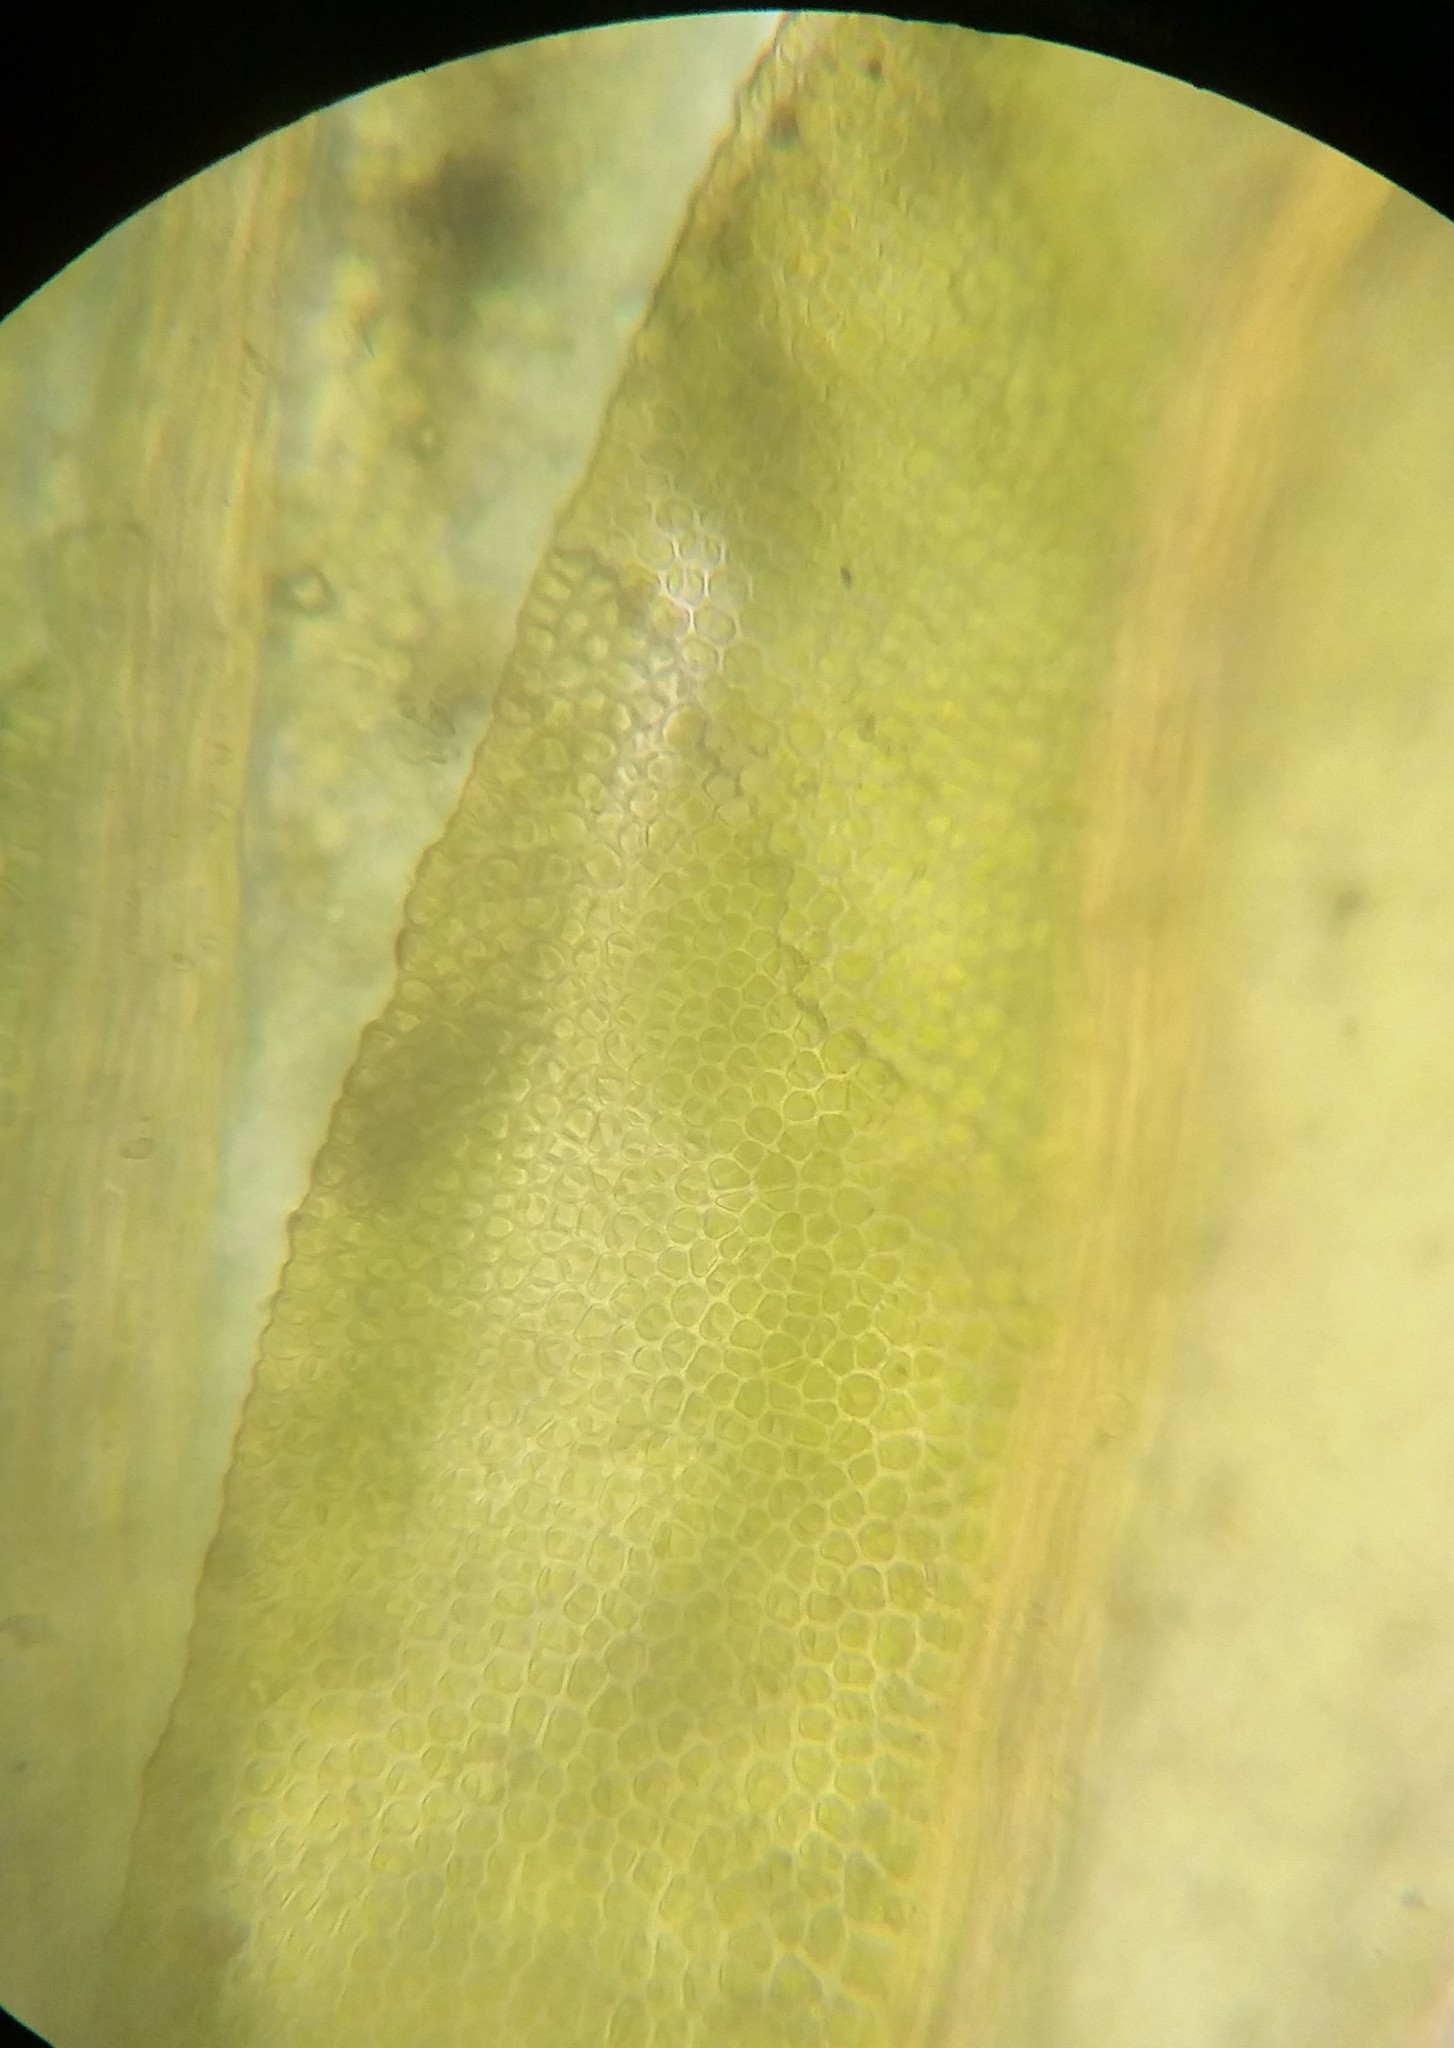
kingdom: Plantae
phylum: Bryophyta
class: Bryopsida
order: Dicranales
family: Fissidentaceae
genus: Fissidens
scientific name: Fissidens bushii
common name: Bush's pocket moss
